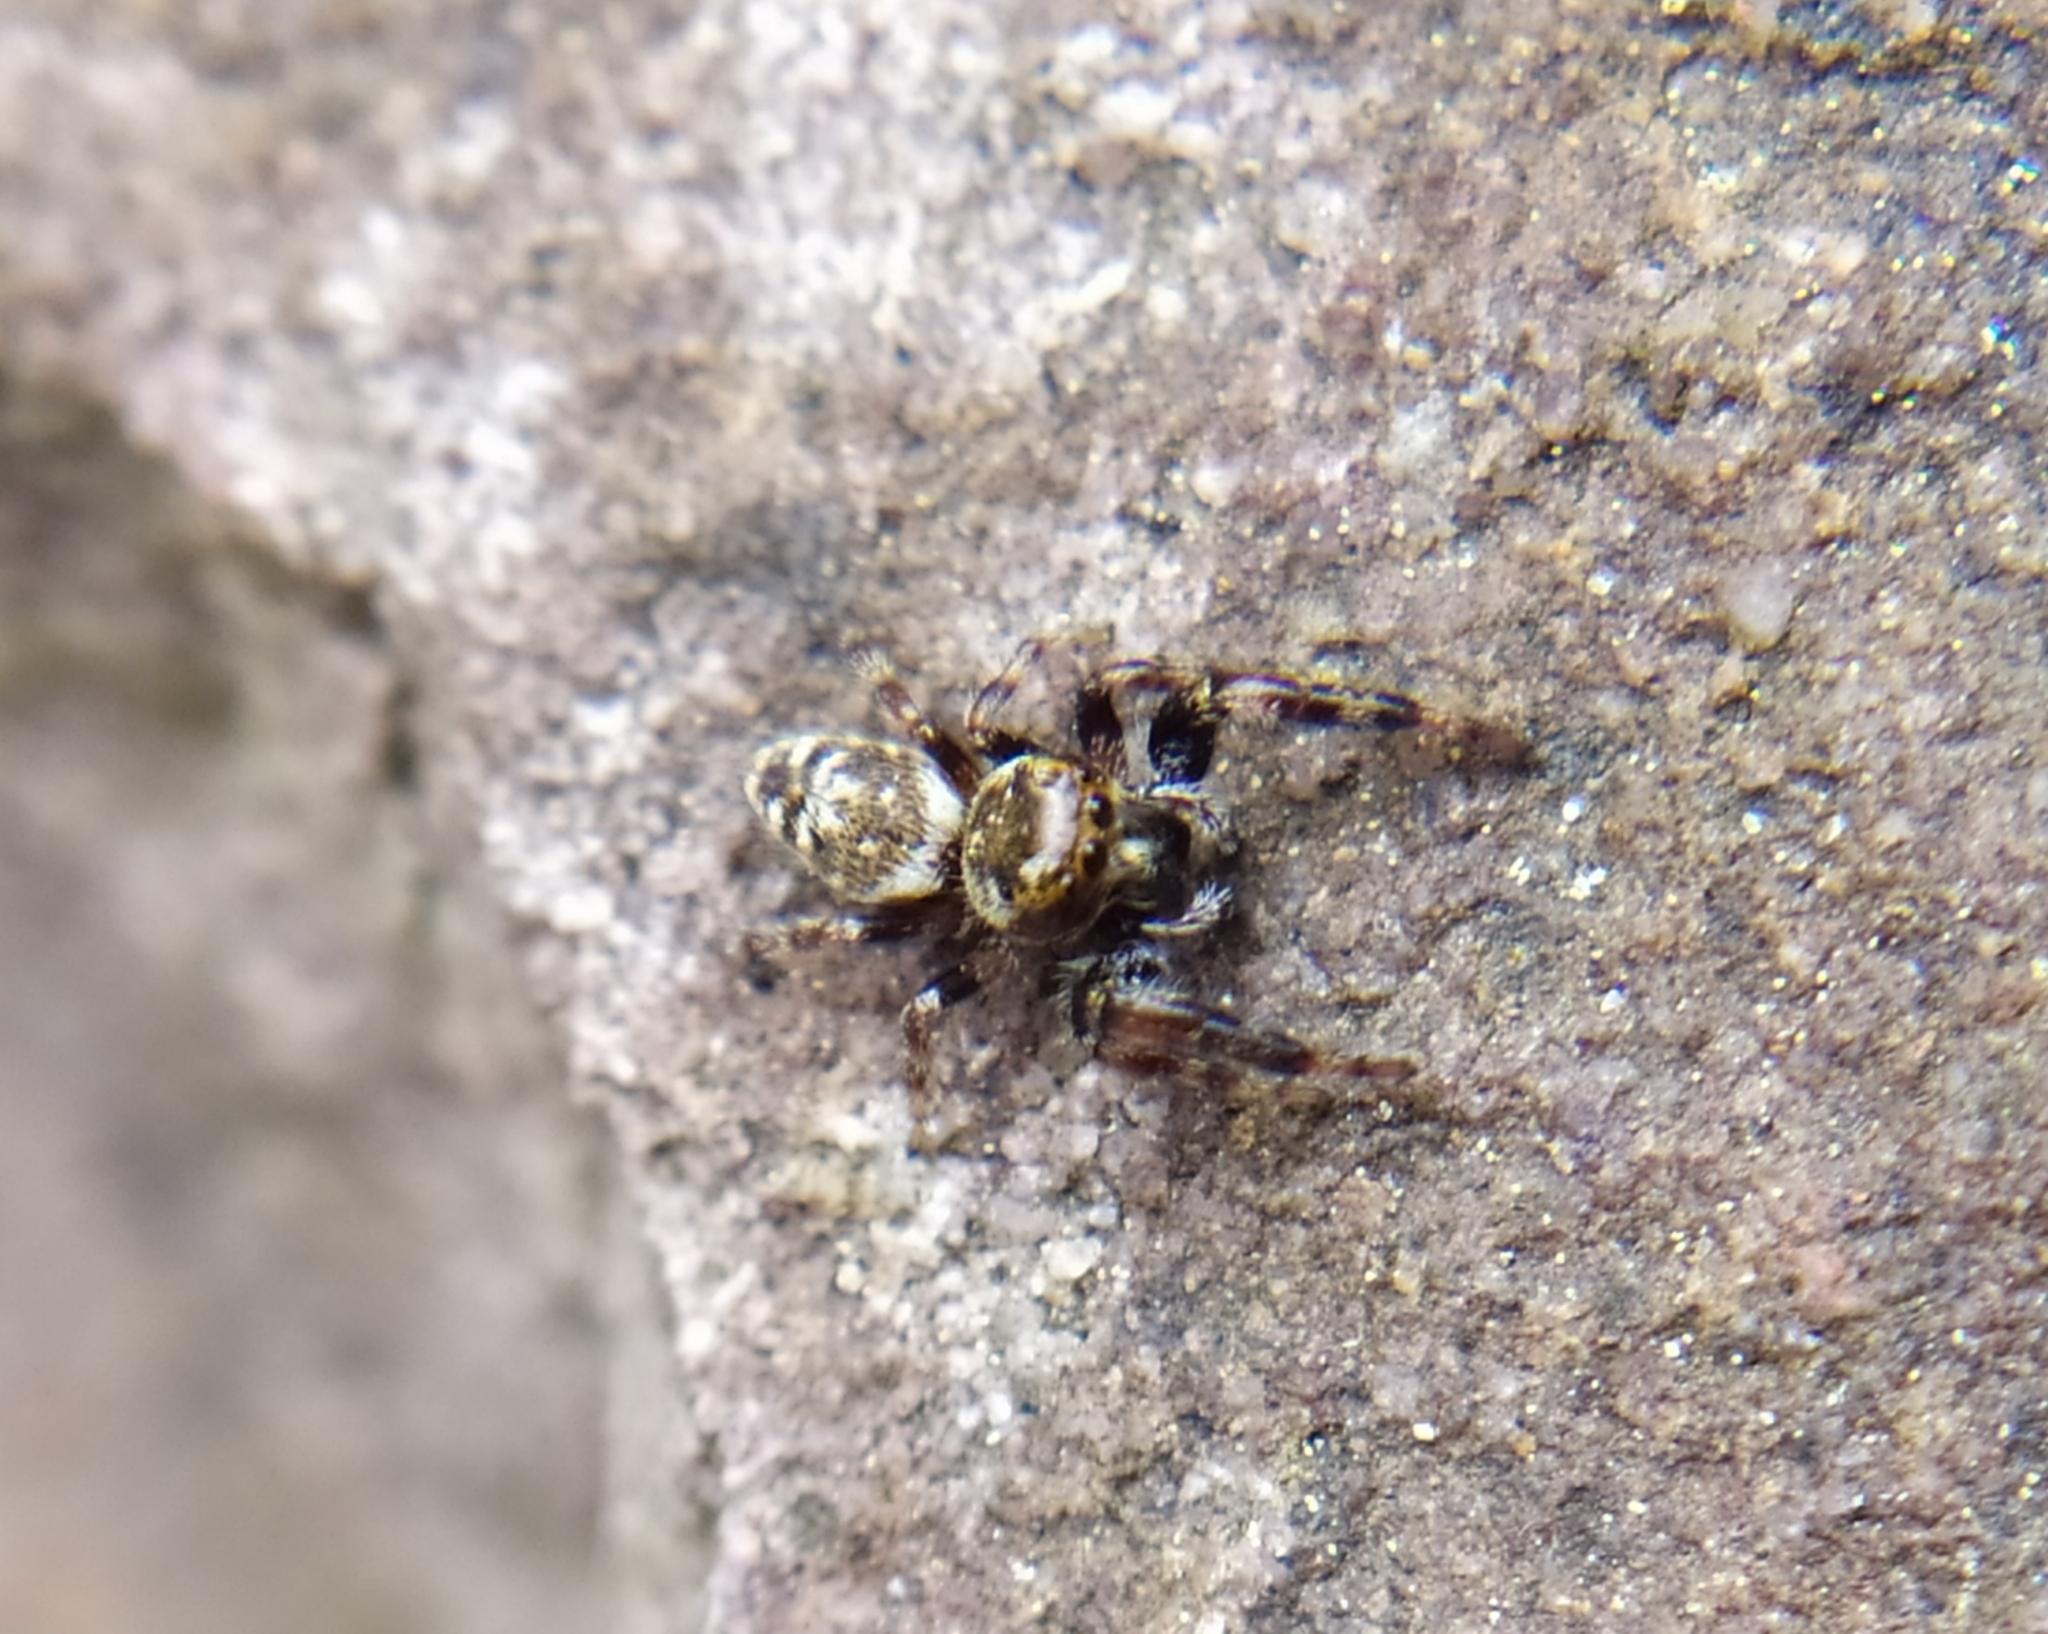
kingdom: Animalia
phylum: Arthropoda
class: Arachnida
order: Araneae
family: Salticidae
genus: Macaroeris
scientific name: Macaroeris nidicolens
